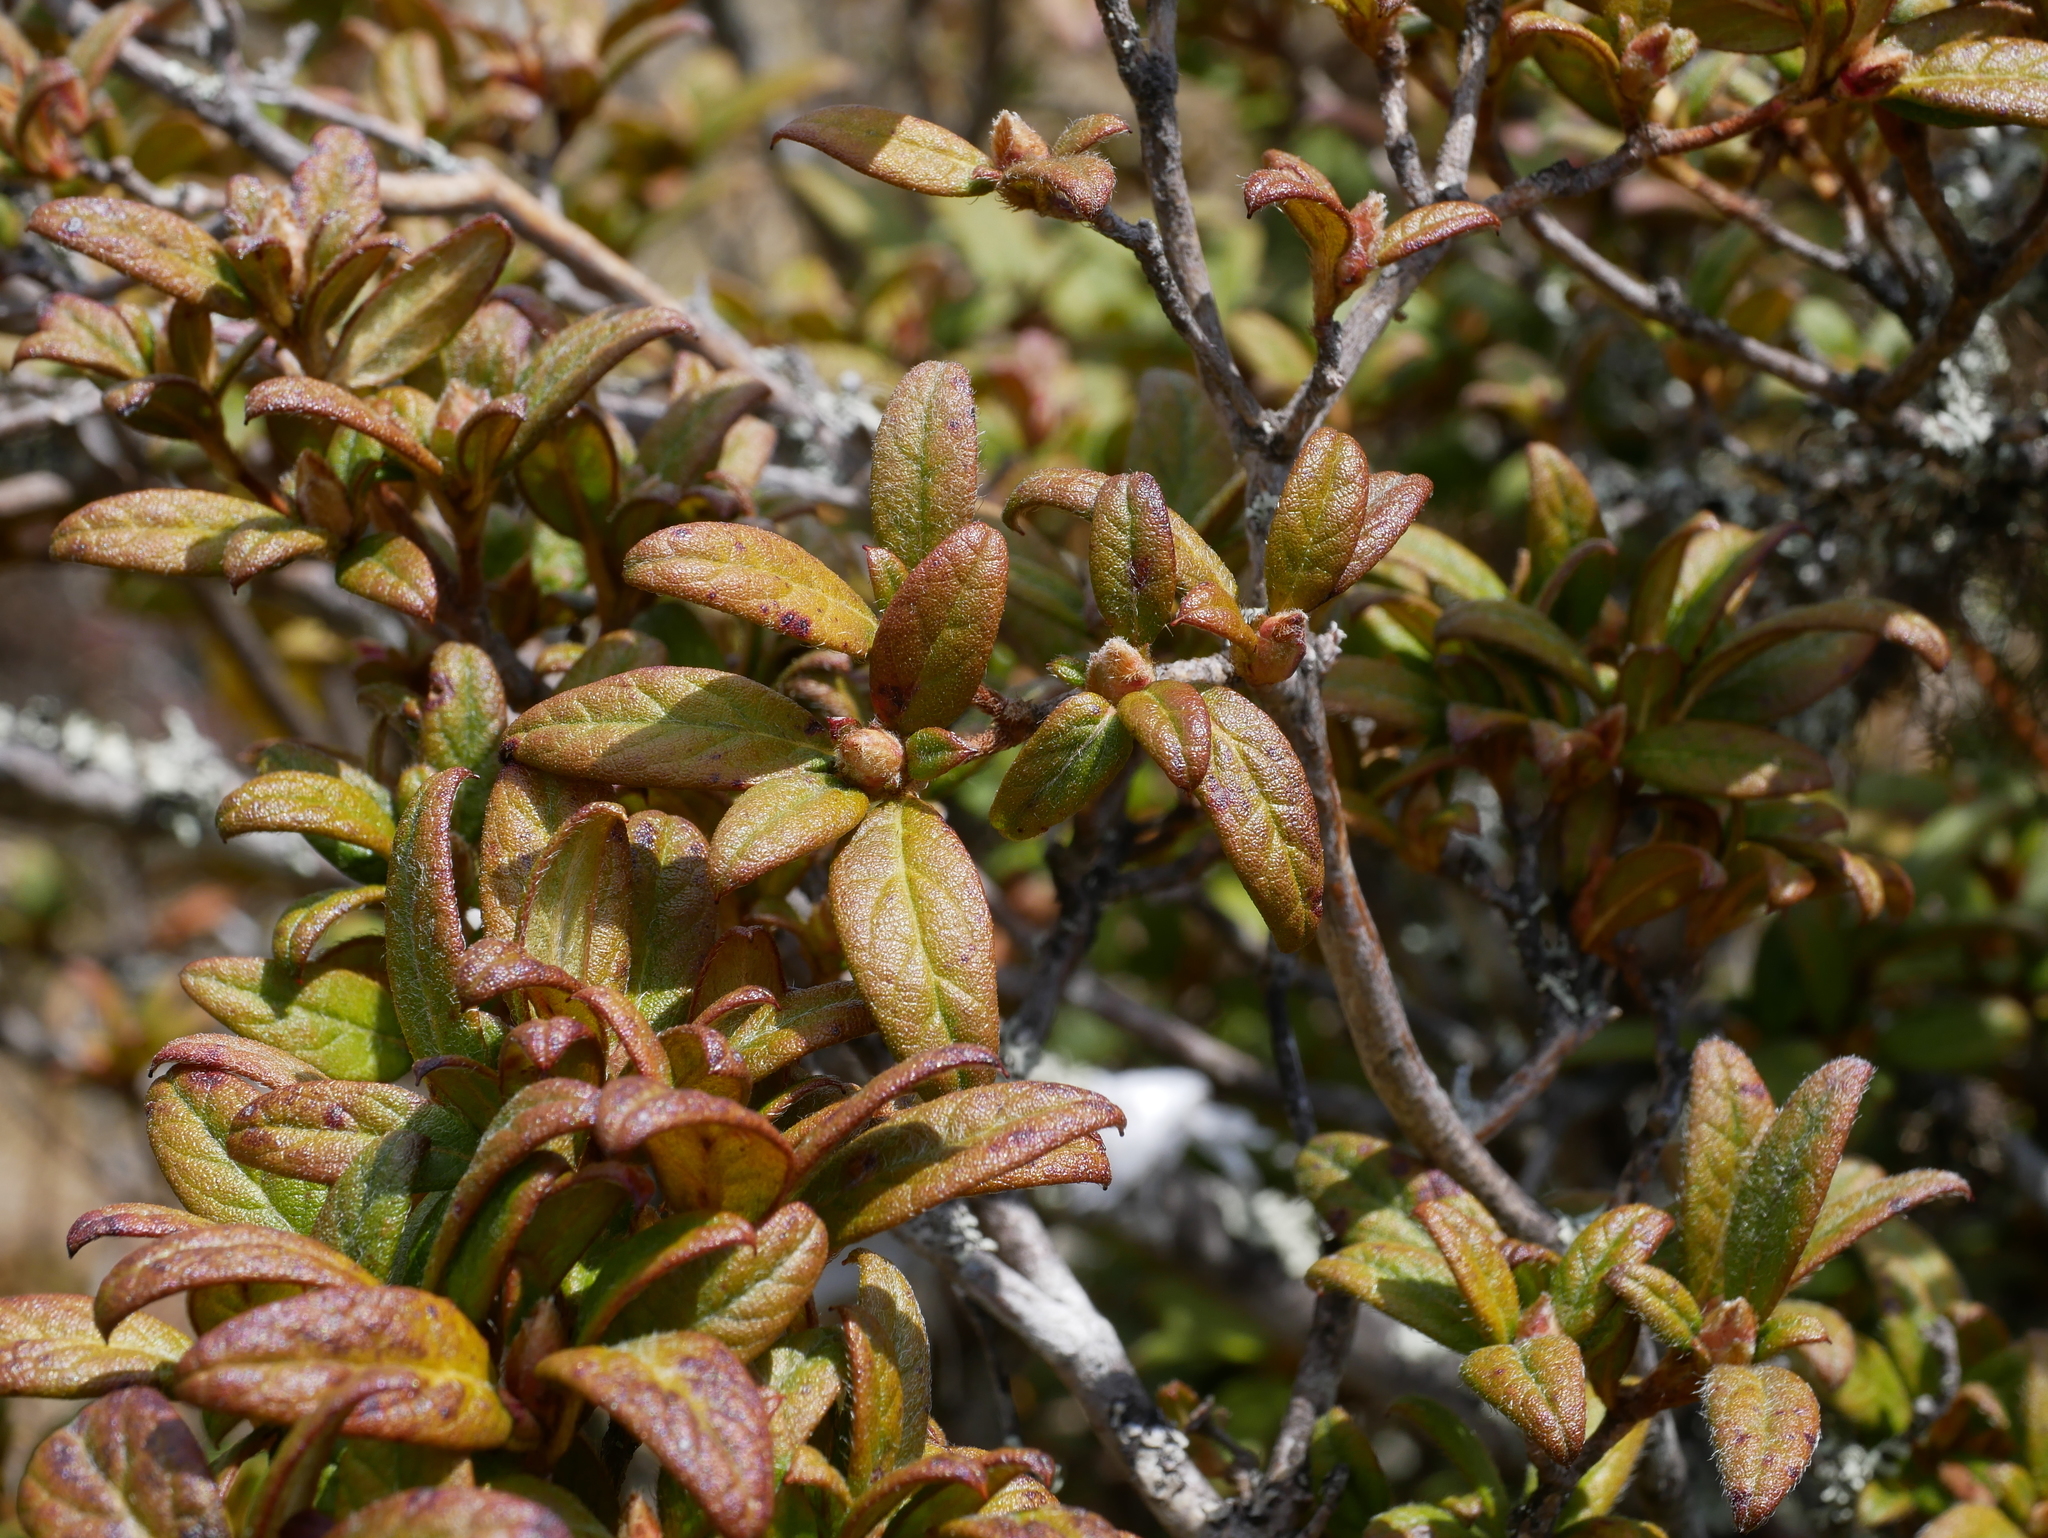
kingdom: Plantae
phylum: Tracheophyta
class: Magnoliopsida
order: Ericales
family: Ericaceae
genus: Rhododendron
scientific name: Rhododendron taiwanalpinum
